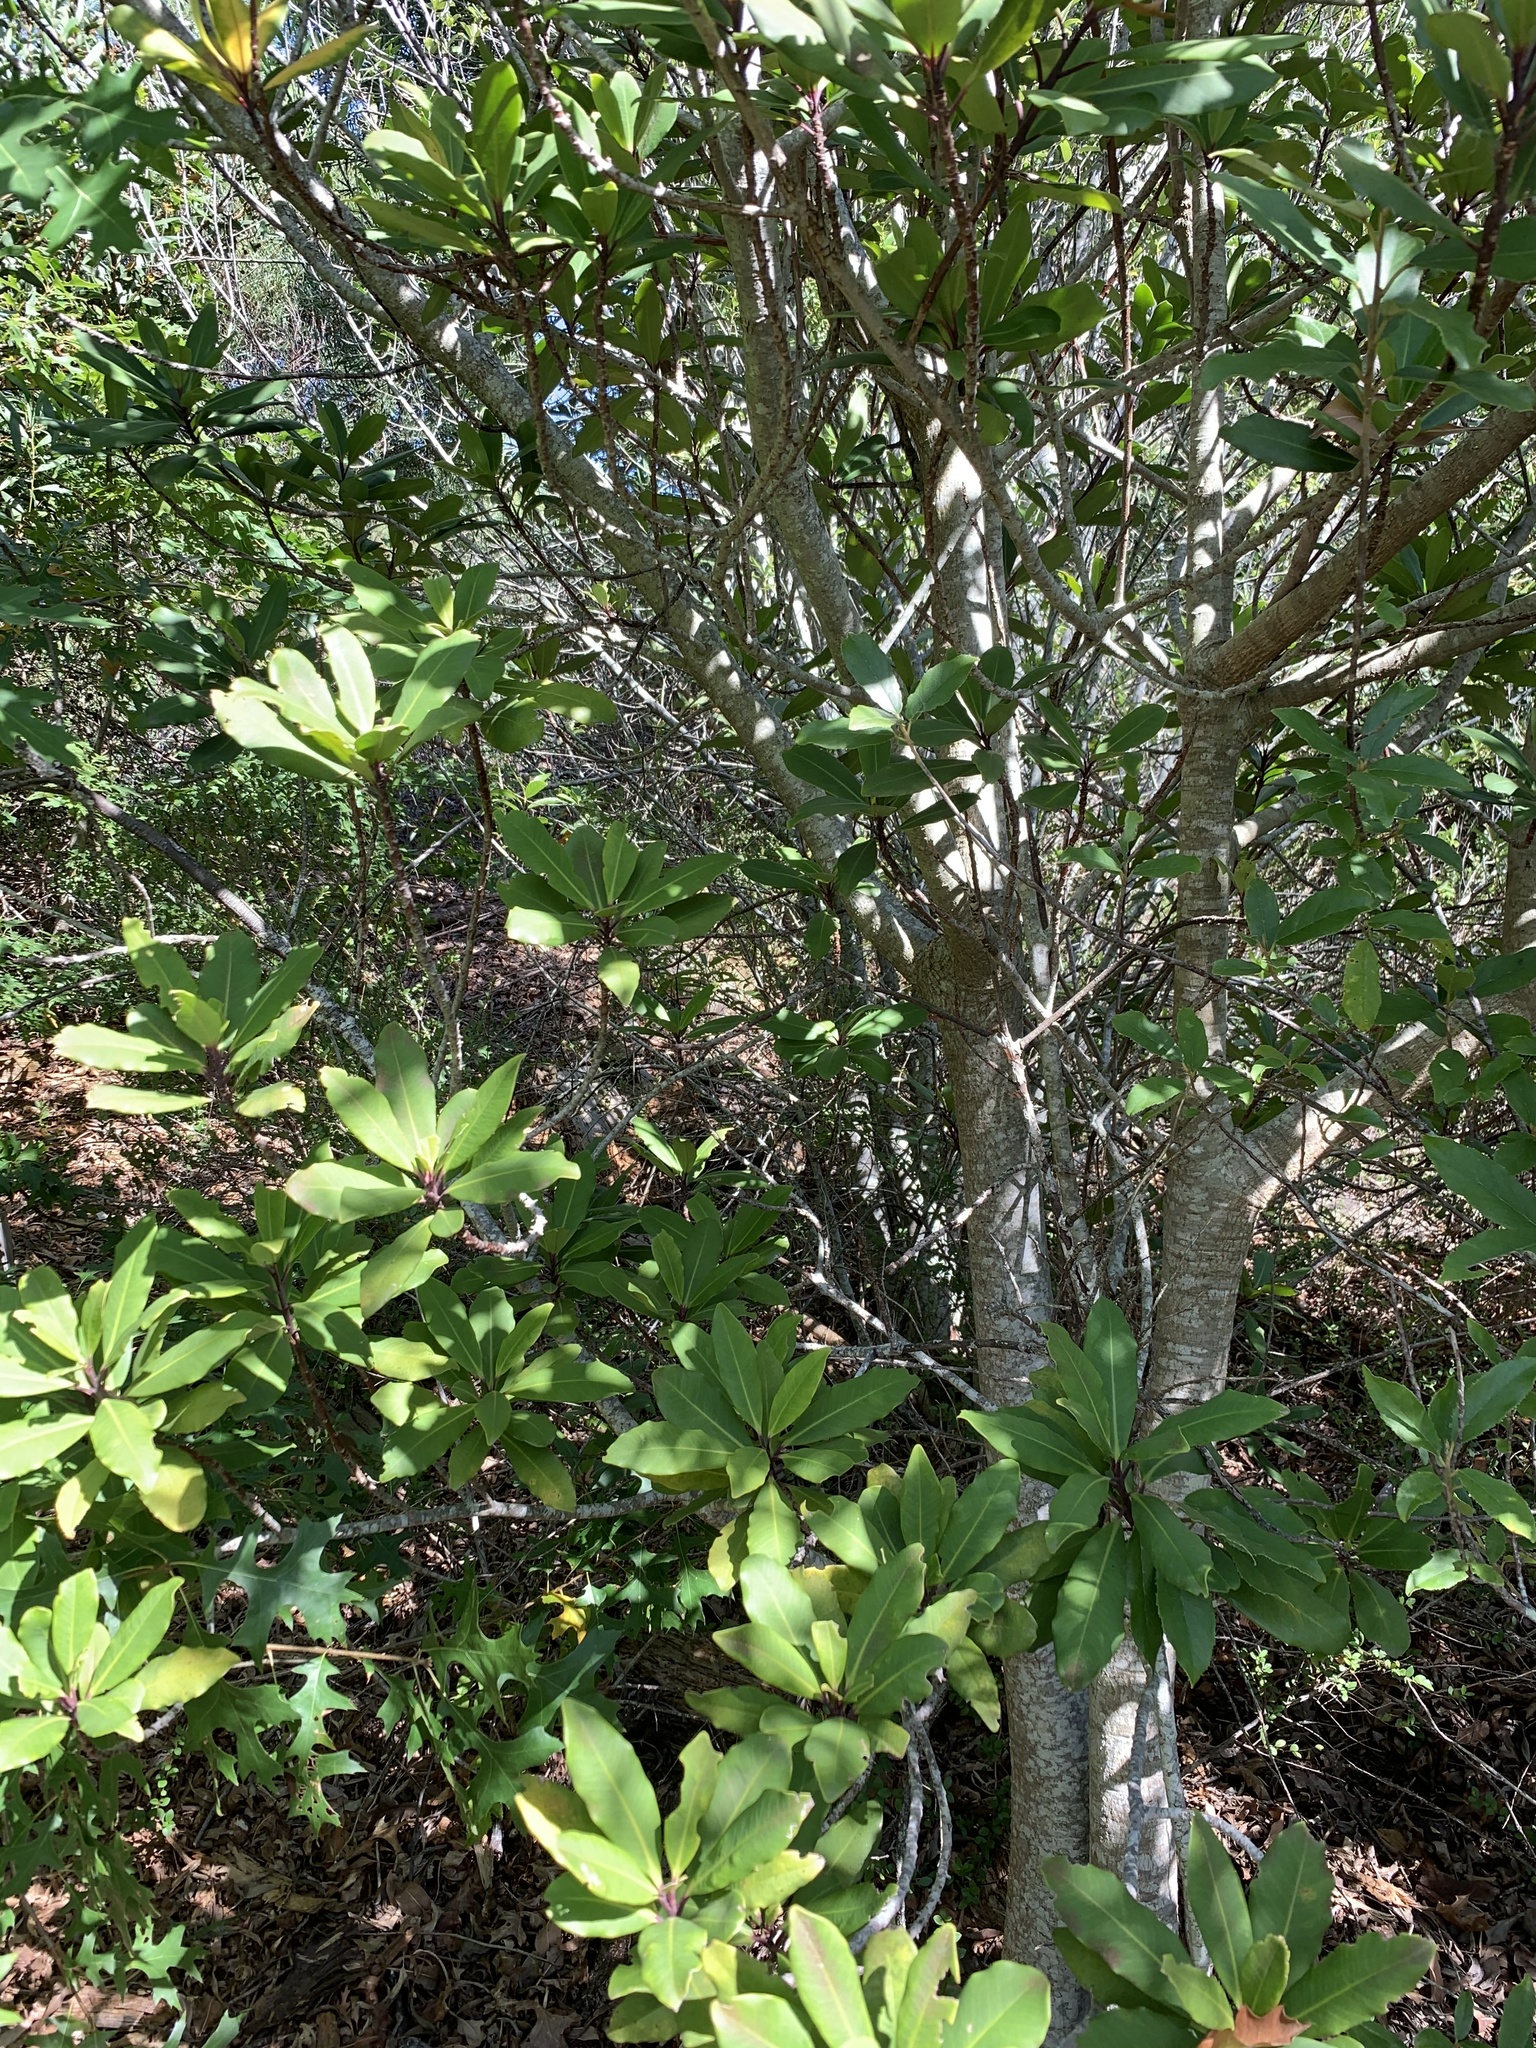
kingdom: Plantae
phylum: Tracheophyta
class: Magnoliopsida
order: Ericales
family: Primulaceae
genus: Myrsine
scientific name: Myrsine melanophloeos
